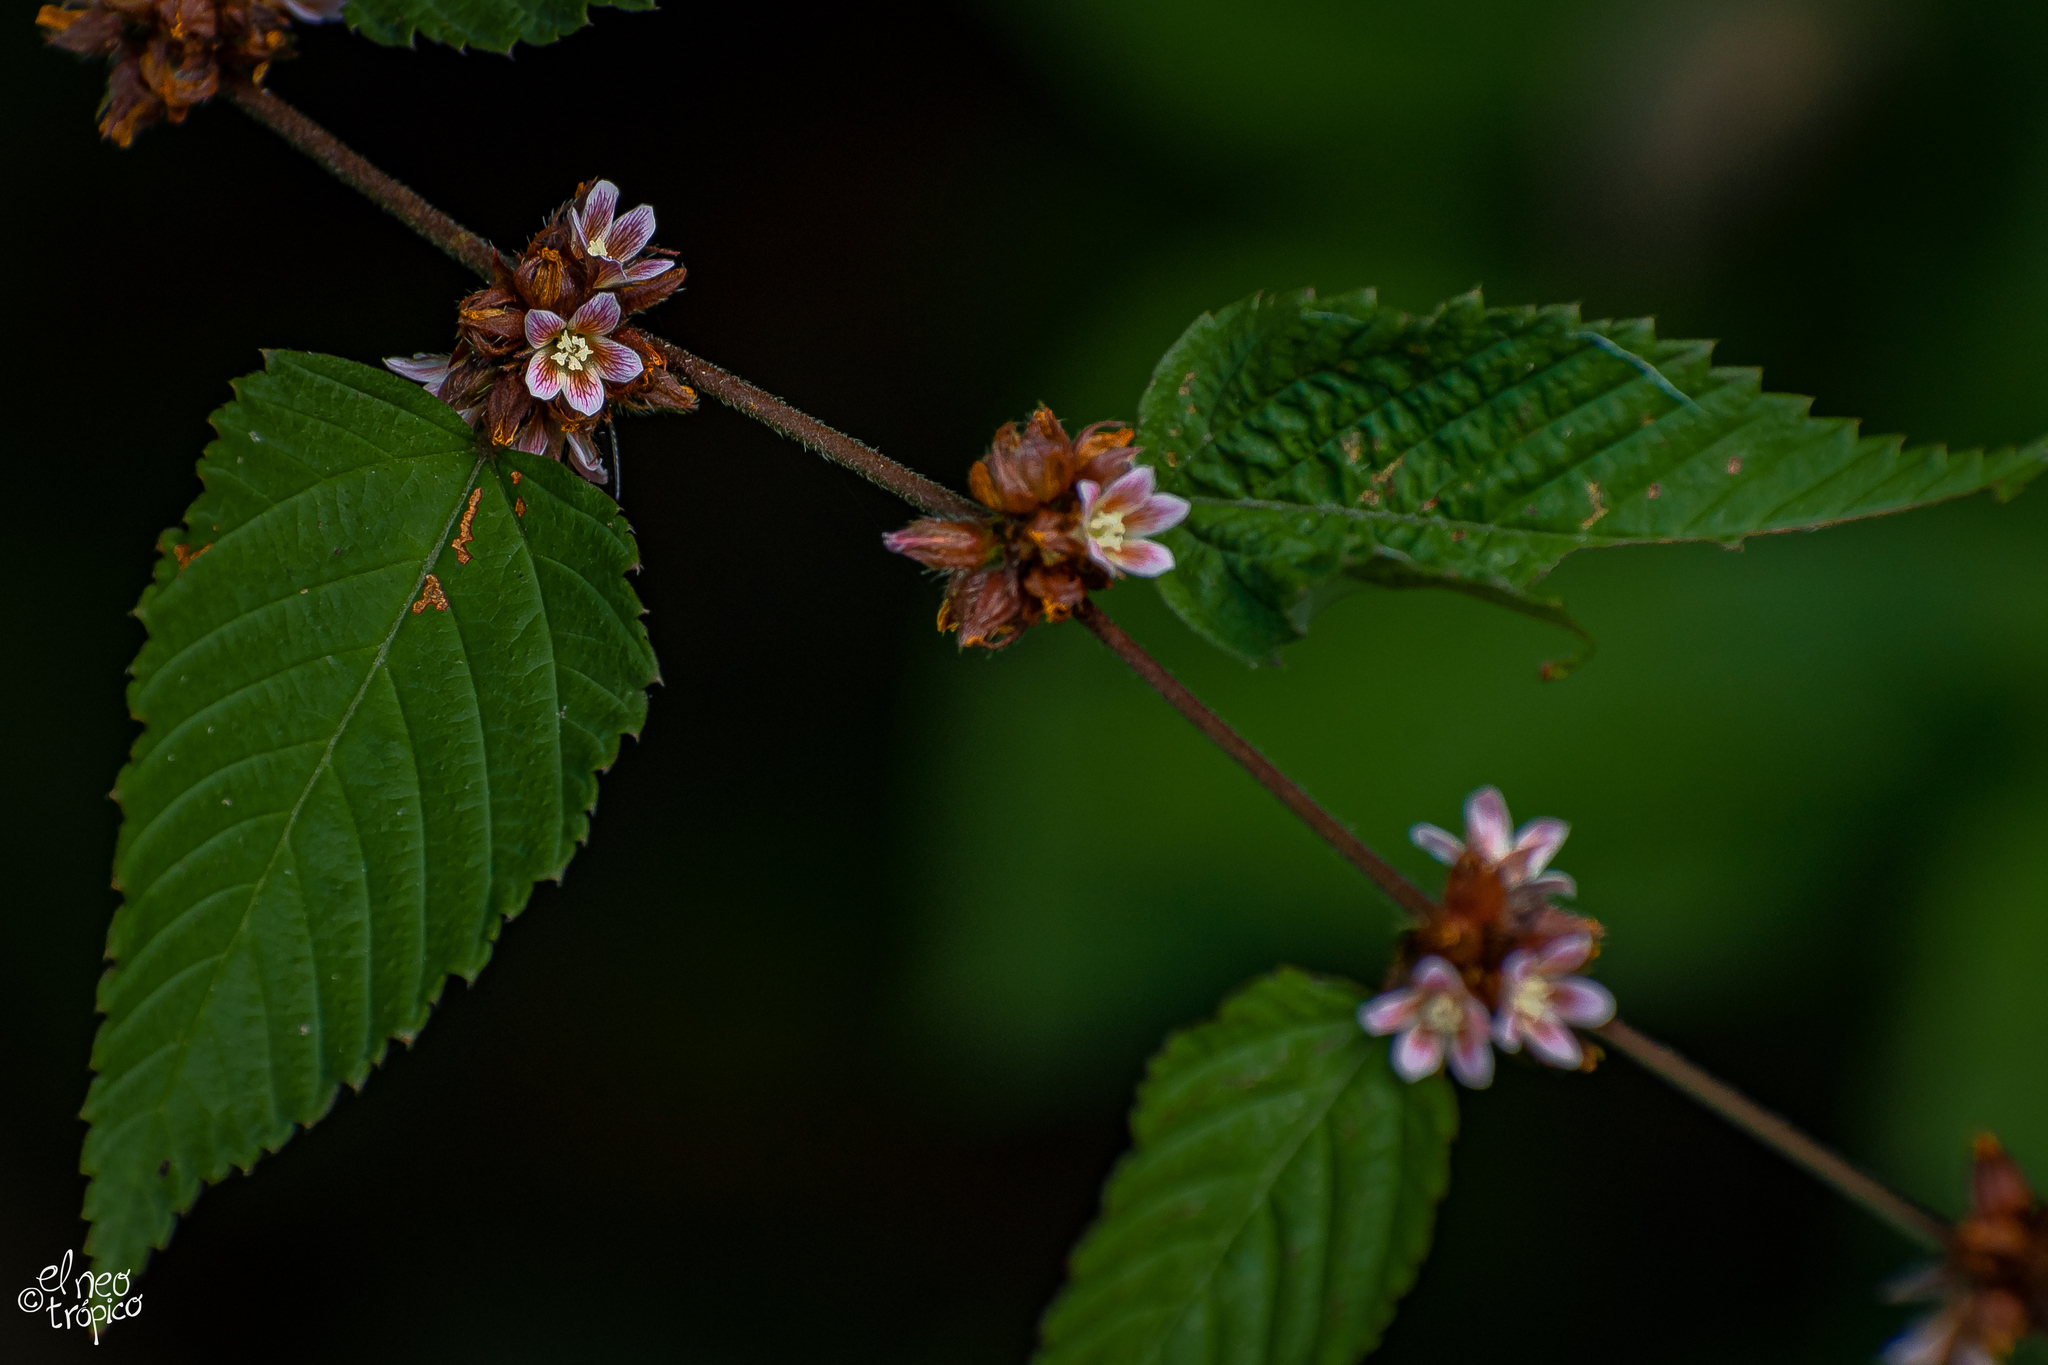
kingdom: Plantae
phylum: Tracheophyta
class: Magnoliopsida
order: Malvales
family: Malvaceae
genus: Melochia
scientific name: Melochia nodiflora
